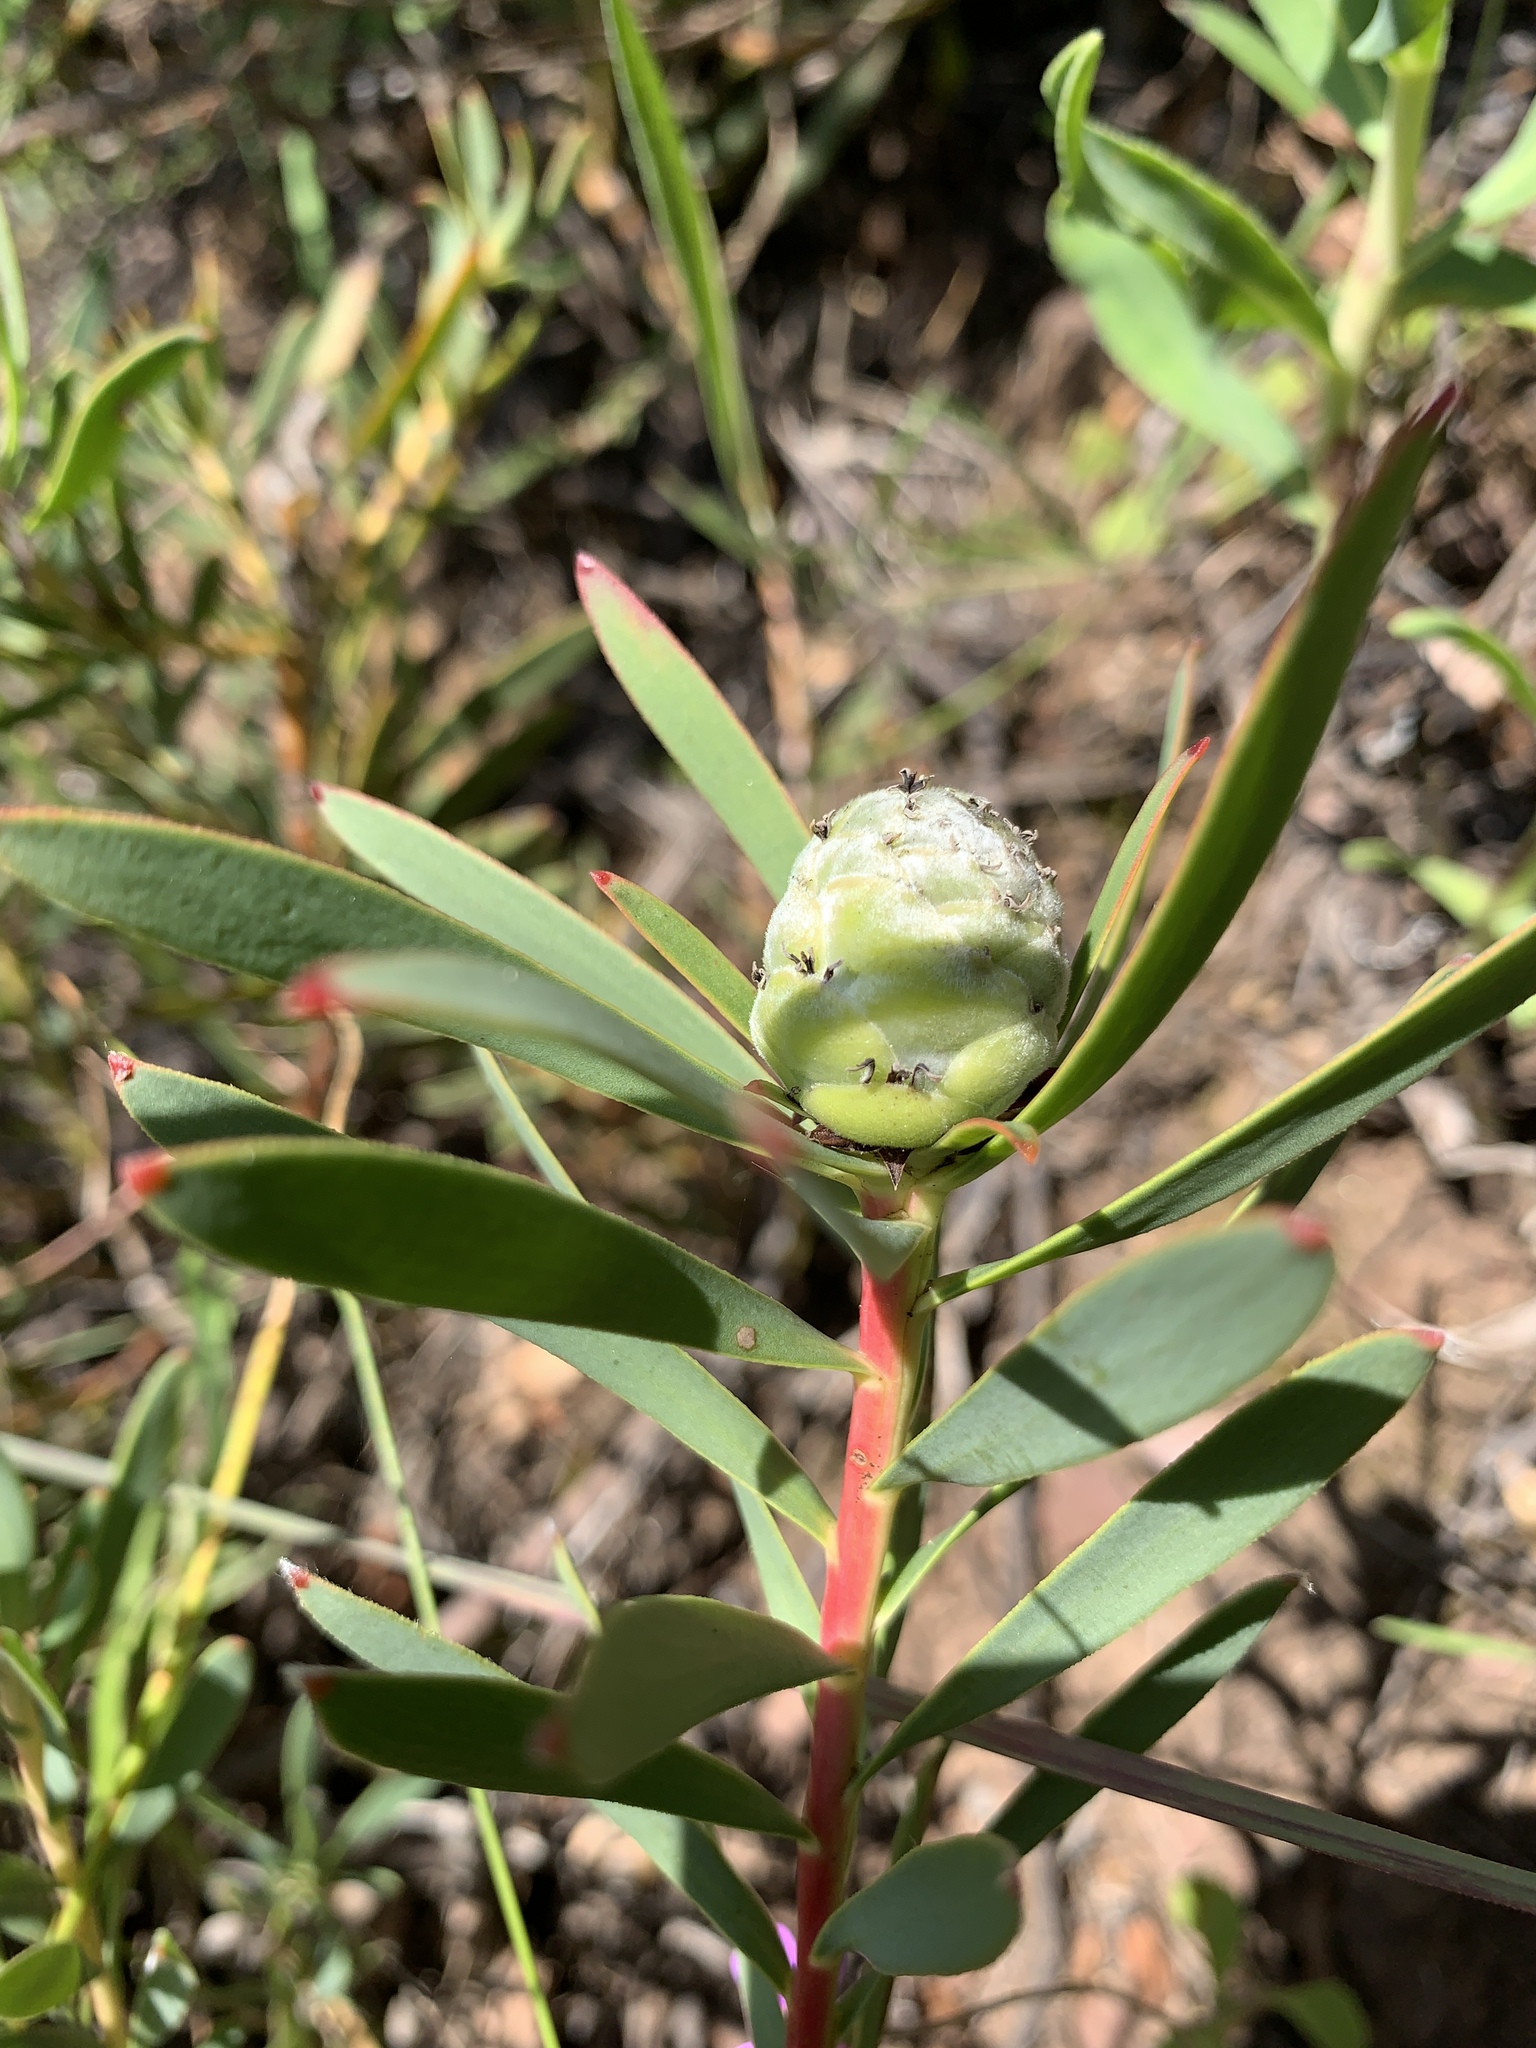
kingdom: Plantae
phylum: Tracheophyta
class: Magnoliopsida
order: Proteales
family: Proteaceae
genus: Leucadendron
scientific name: Leucadendron salignum
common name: Common sunshine conebush
